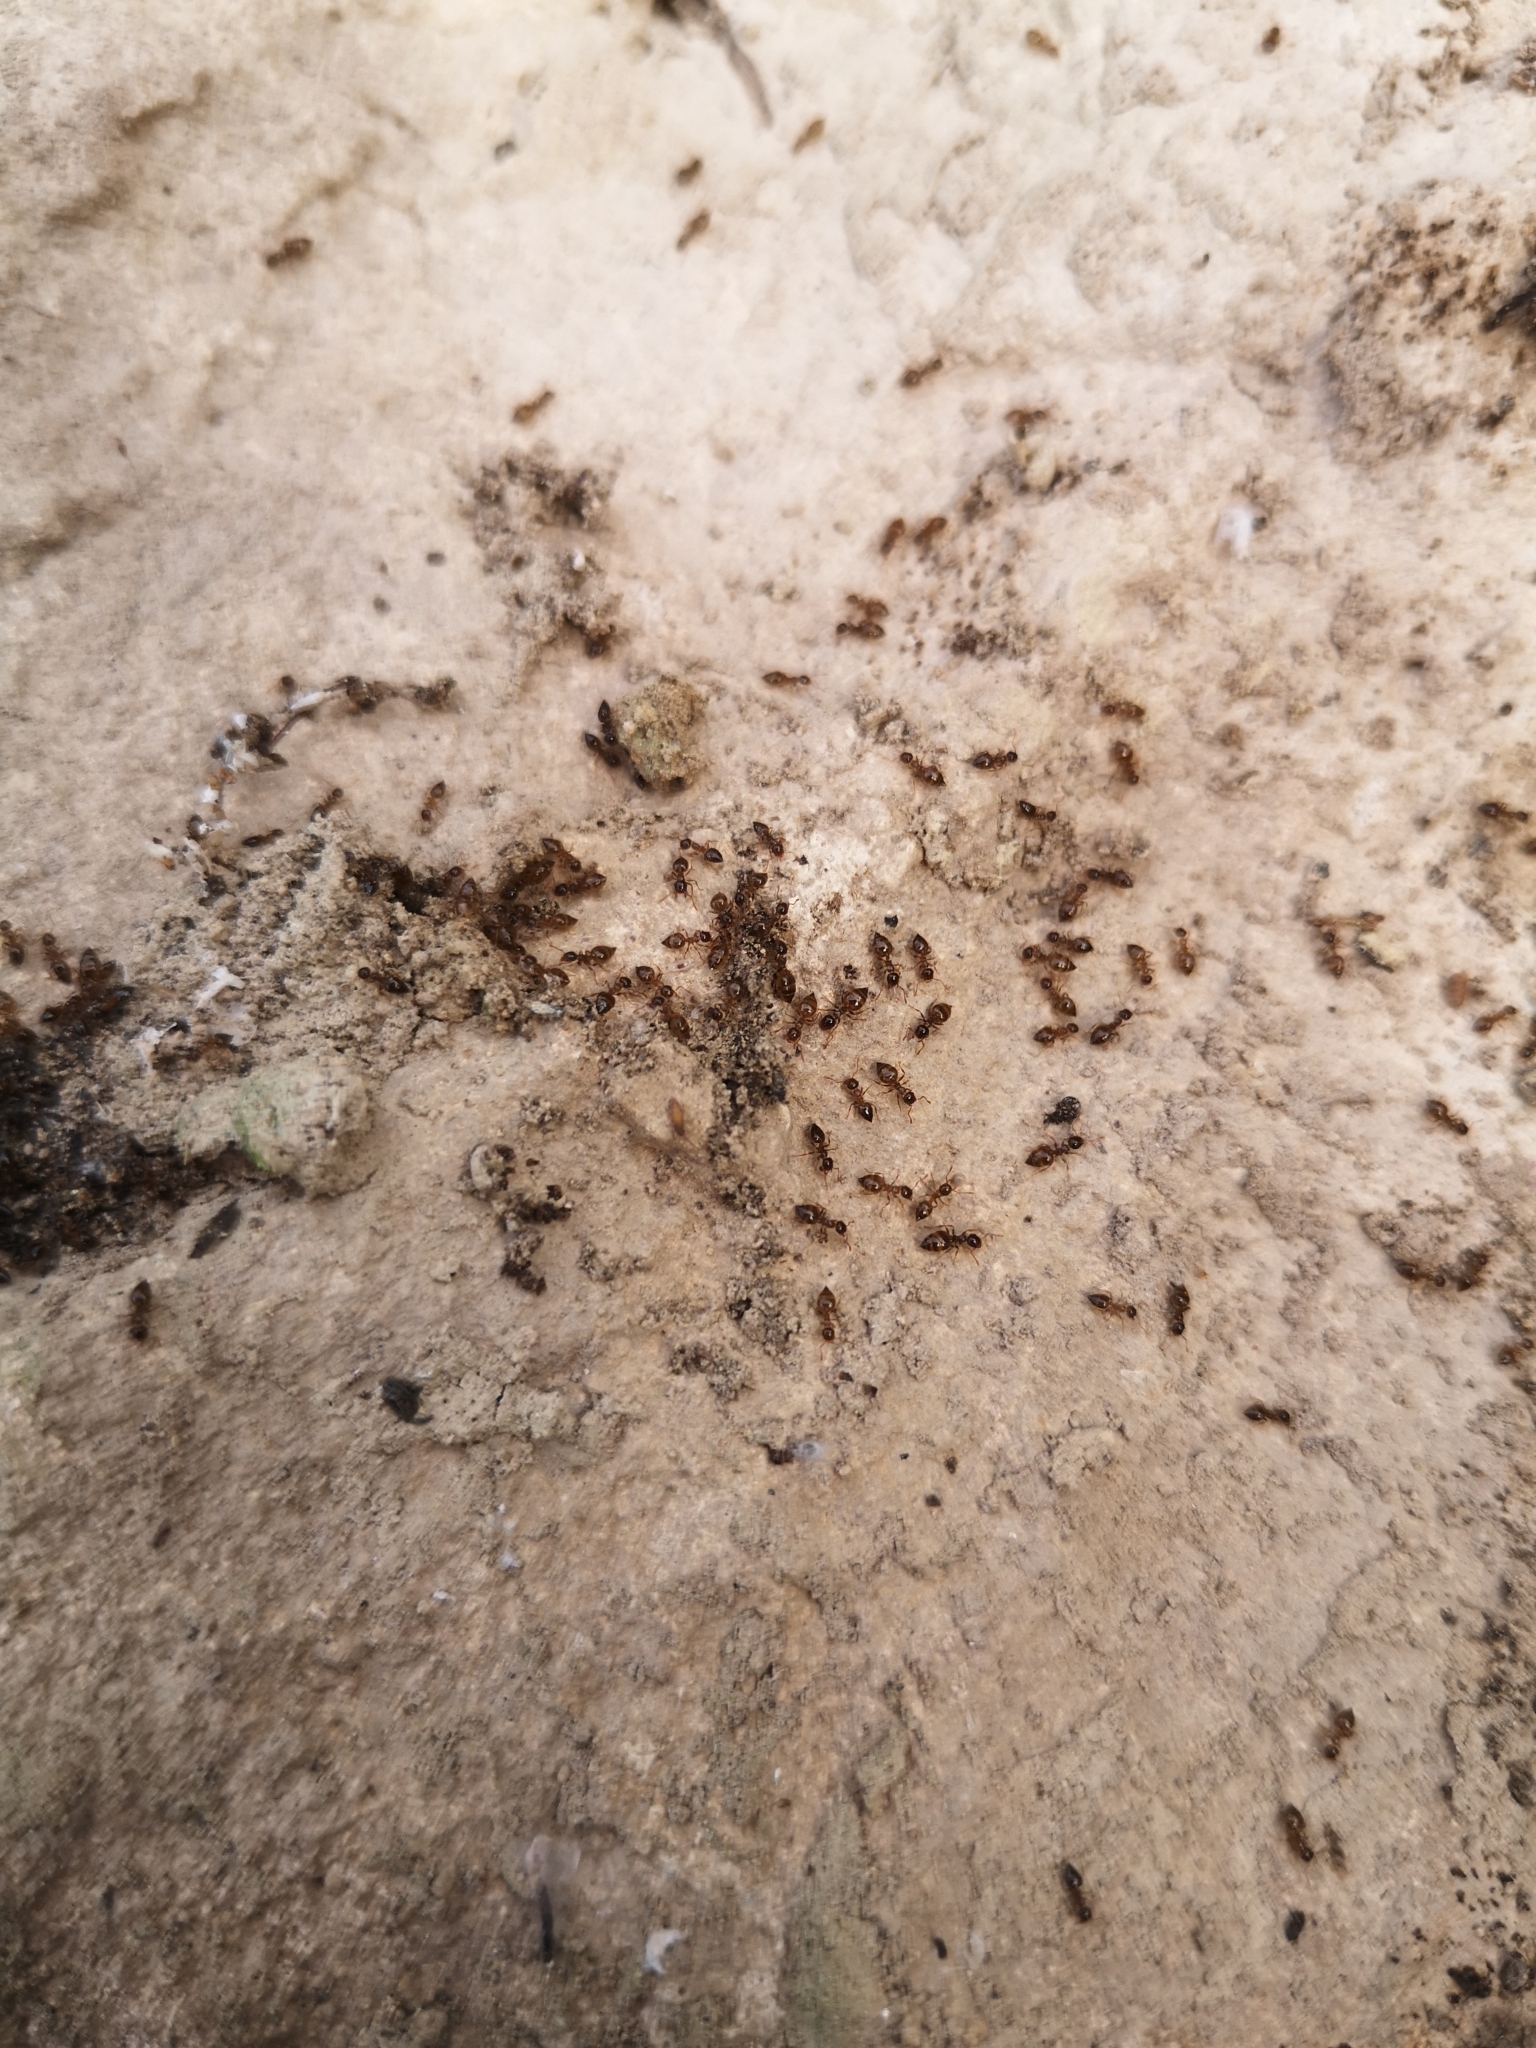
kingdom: Animalia
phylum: Arthropoda
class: Insecta
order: Hymenoptera
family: Formicidae
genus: Crematogaster
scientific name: Crematogaster sordidula
